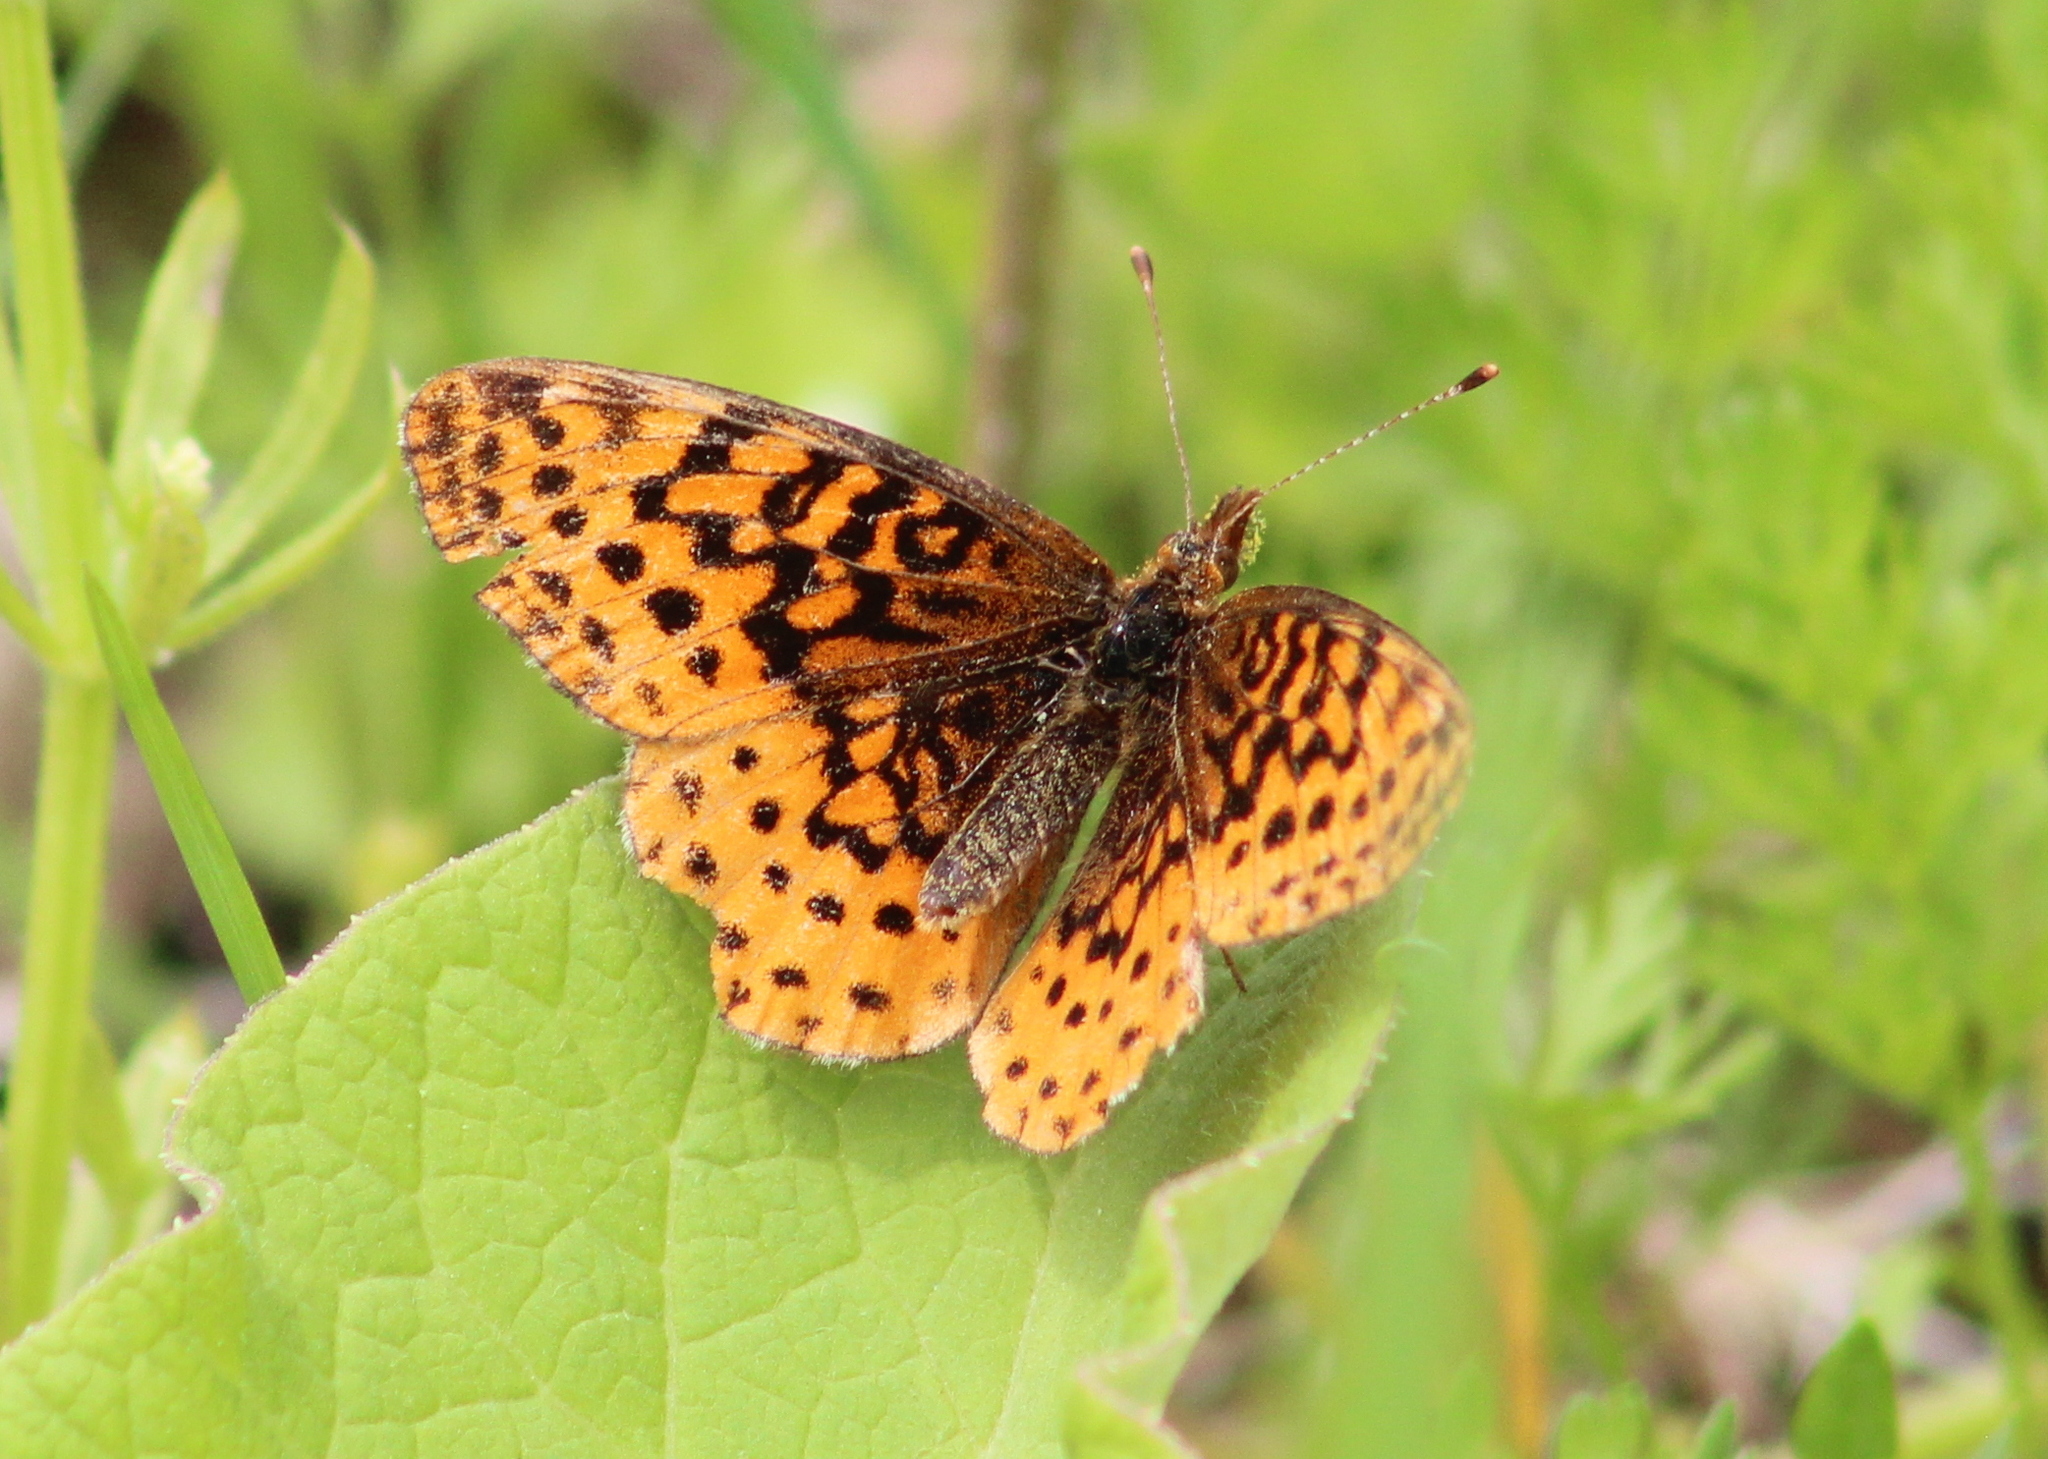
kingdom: Animalia
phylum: Arthropoda
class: Insecta
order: Lepidoptera
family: Nymphalidae
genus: Clossiana
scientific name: Clossiana toddi
